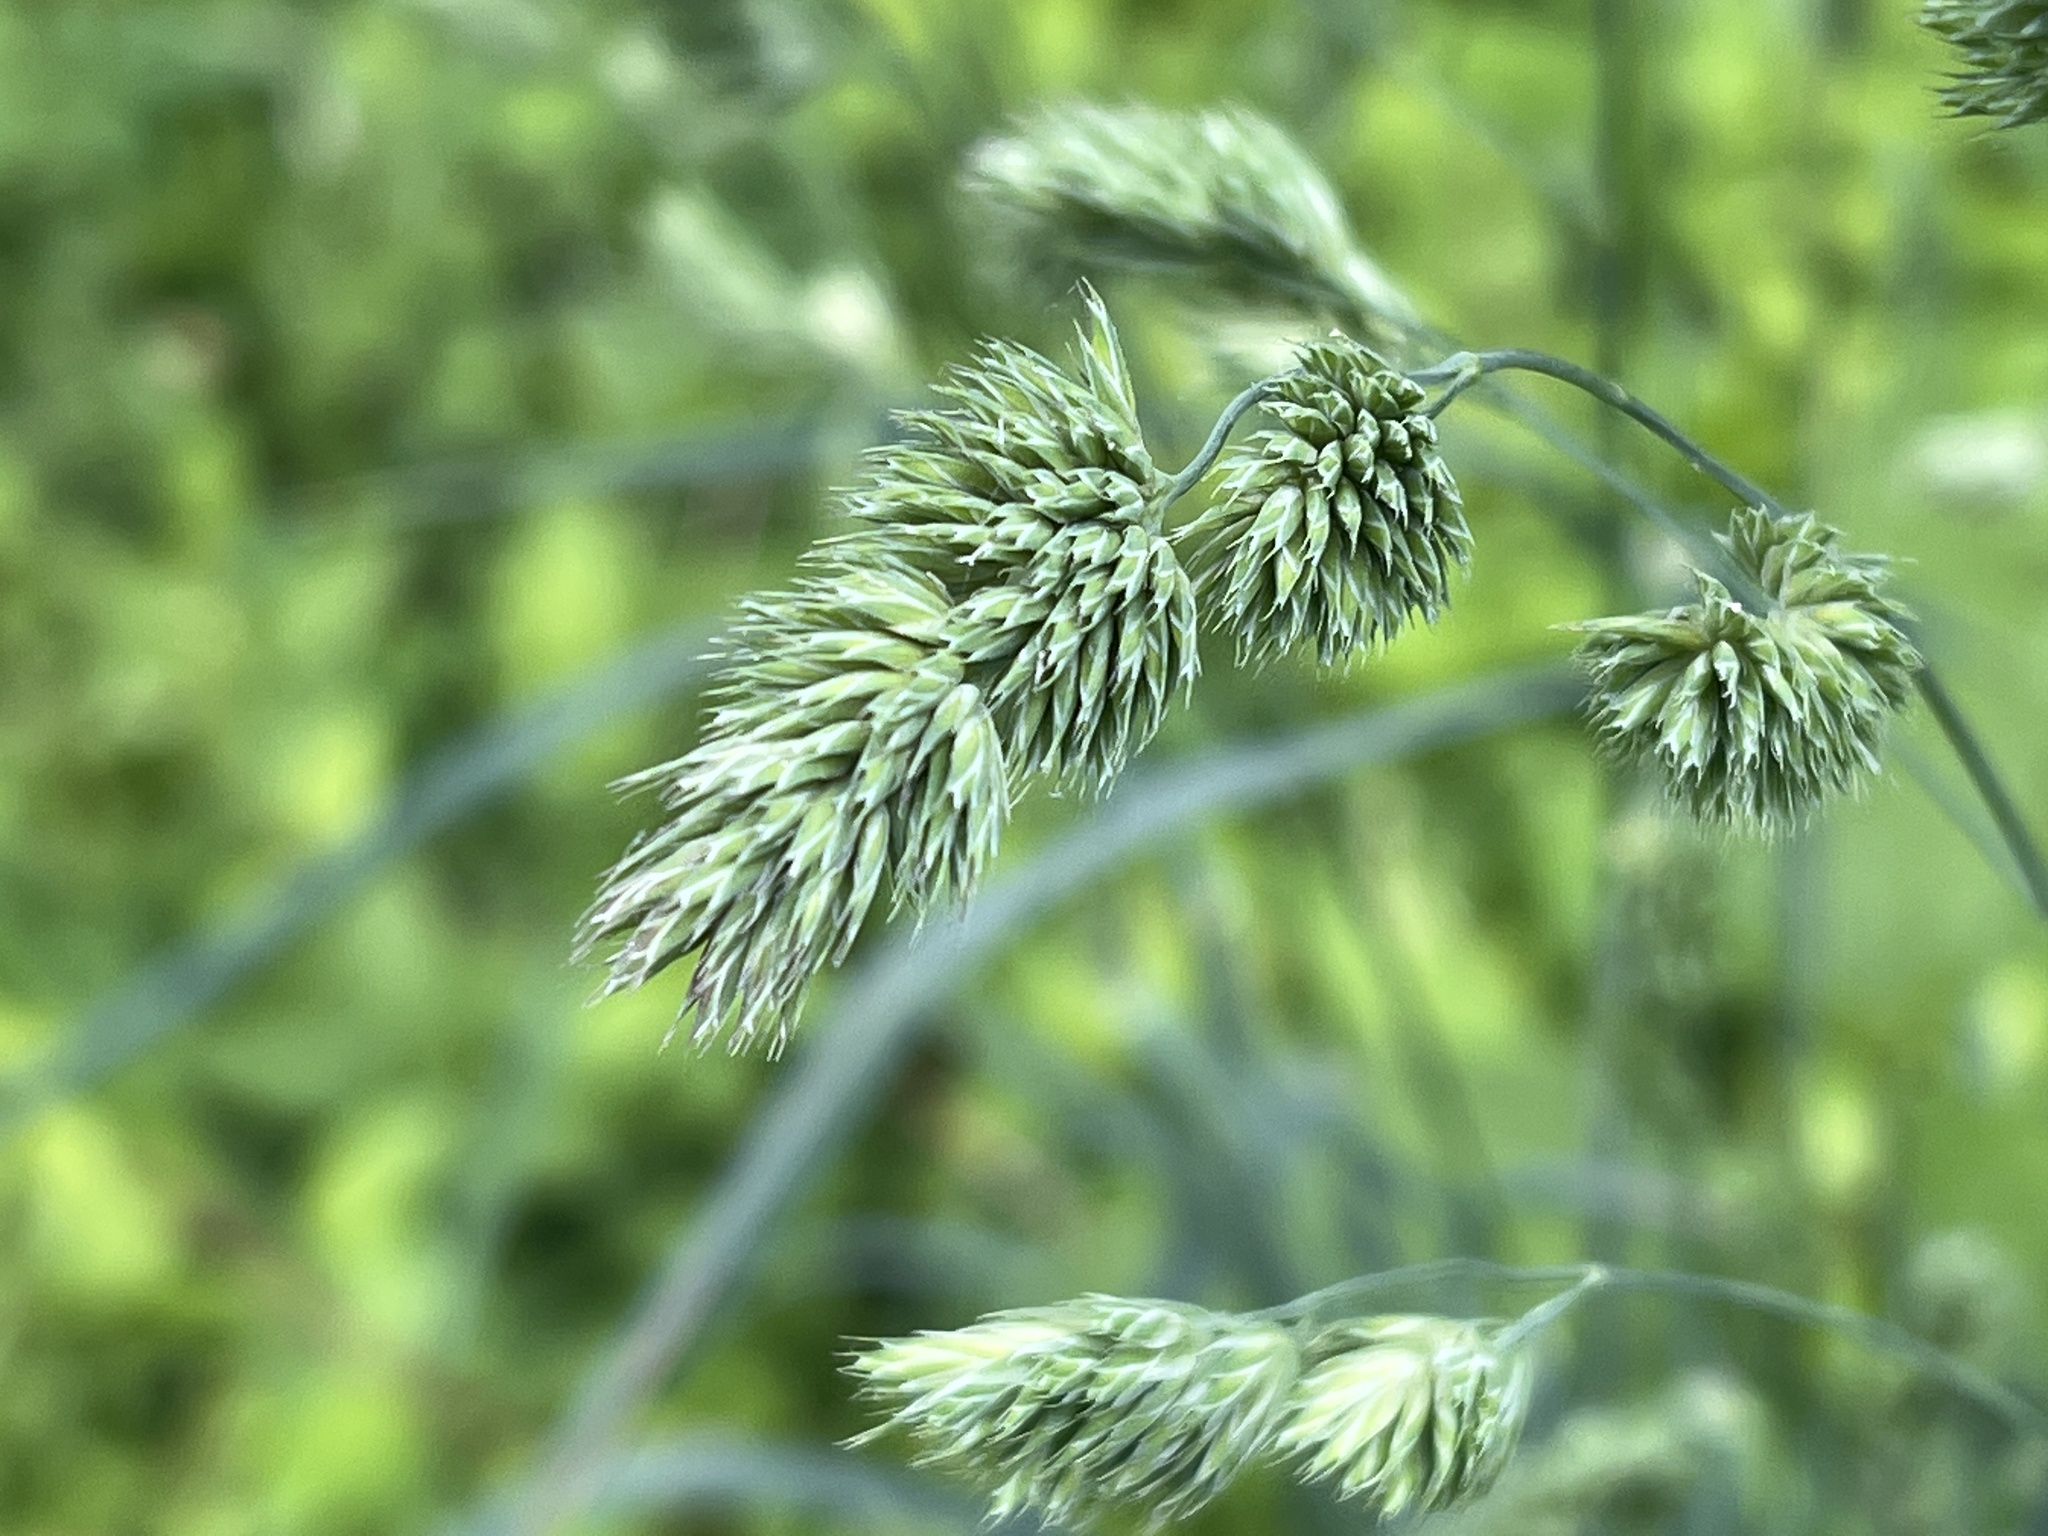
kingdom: Plantae
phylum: Tracheophyta
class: Liliopsida
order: Poales
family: Poaceae
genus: Dactylis
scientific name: Dactylis glomerata
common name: Orchardgrass
